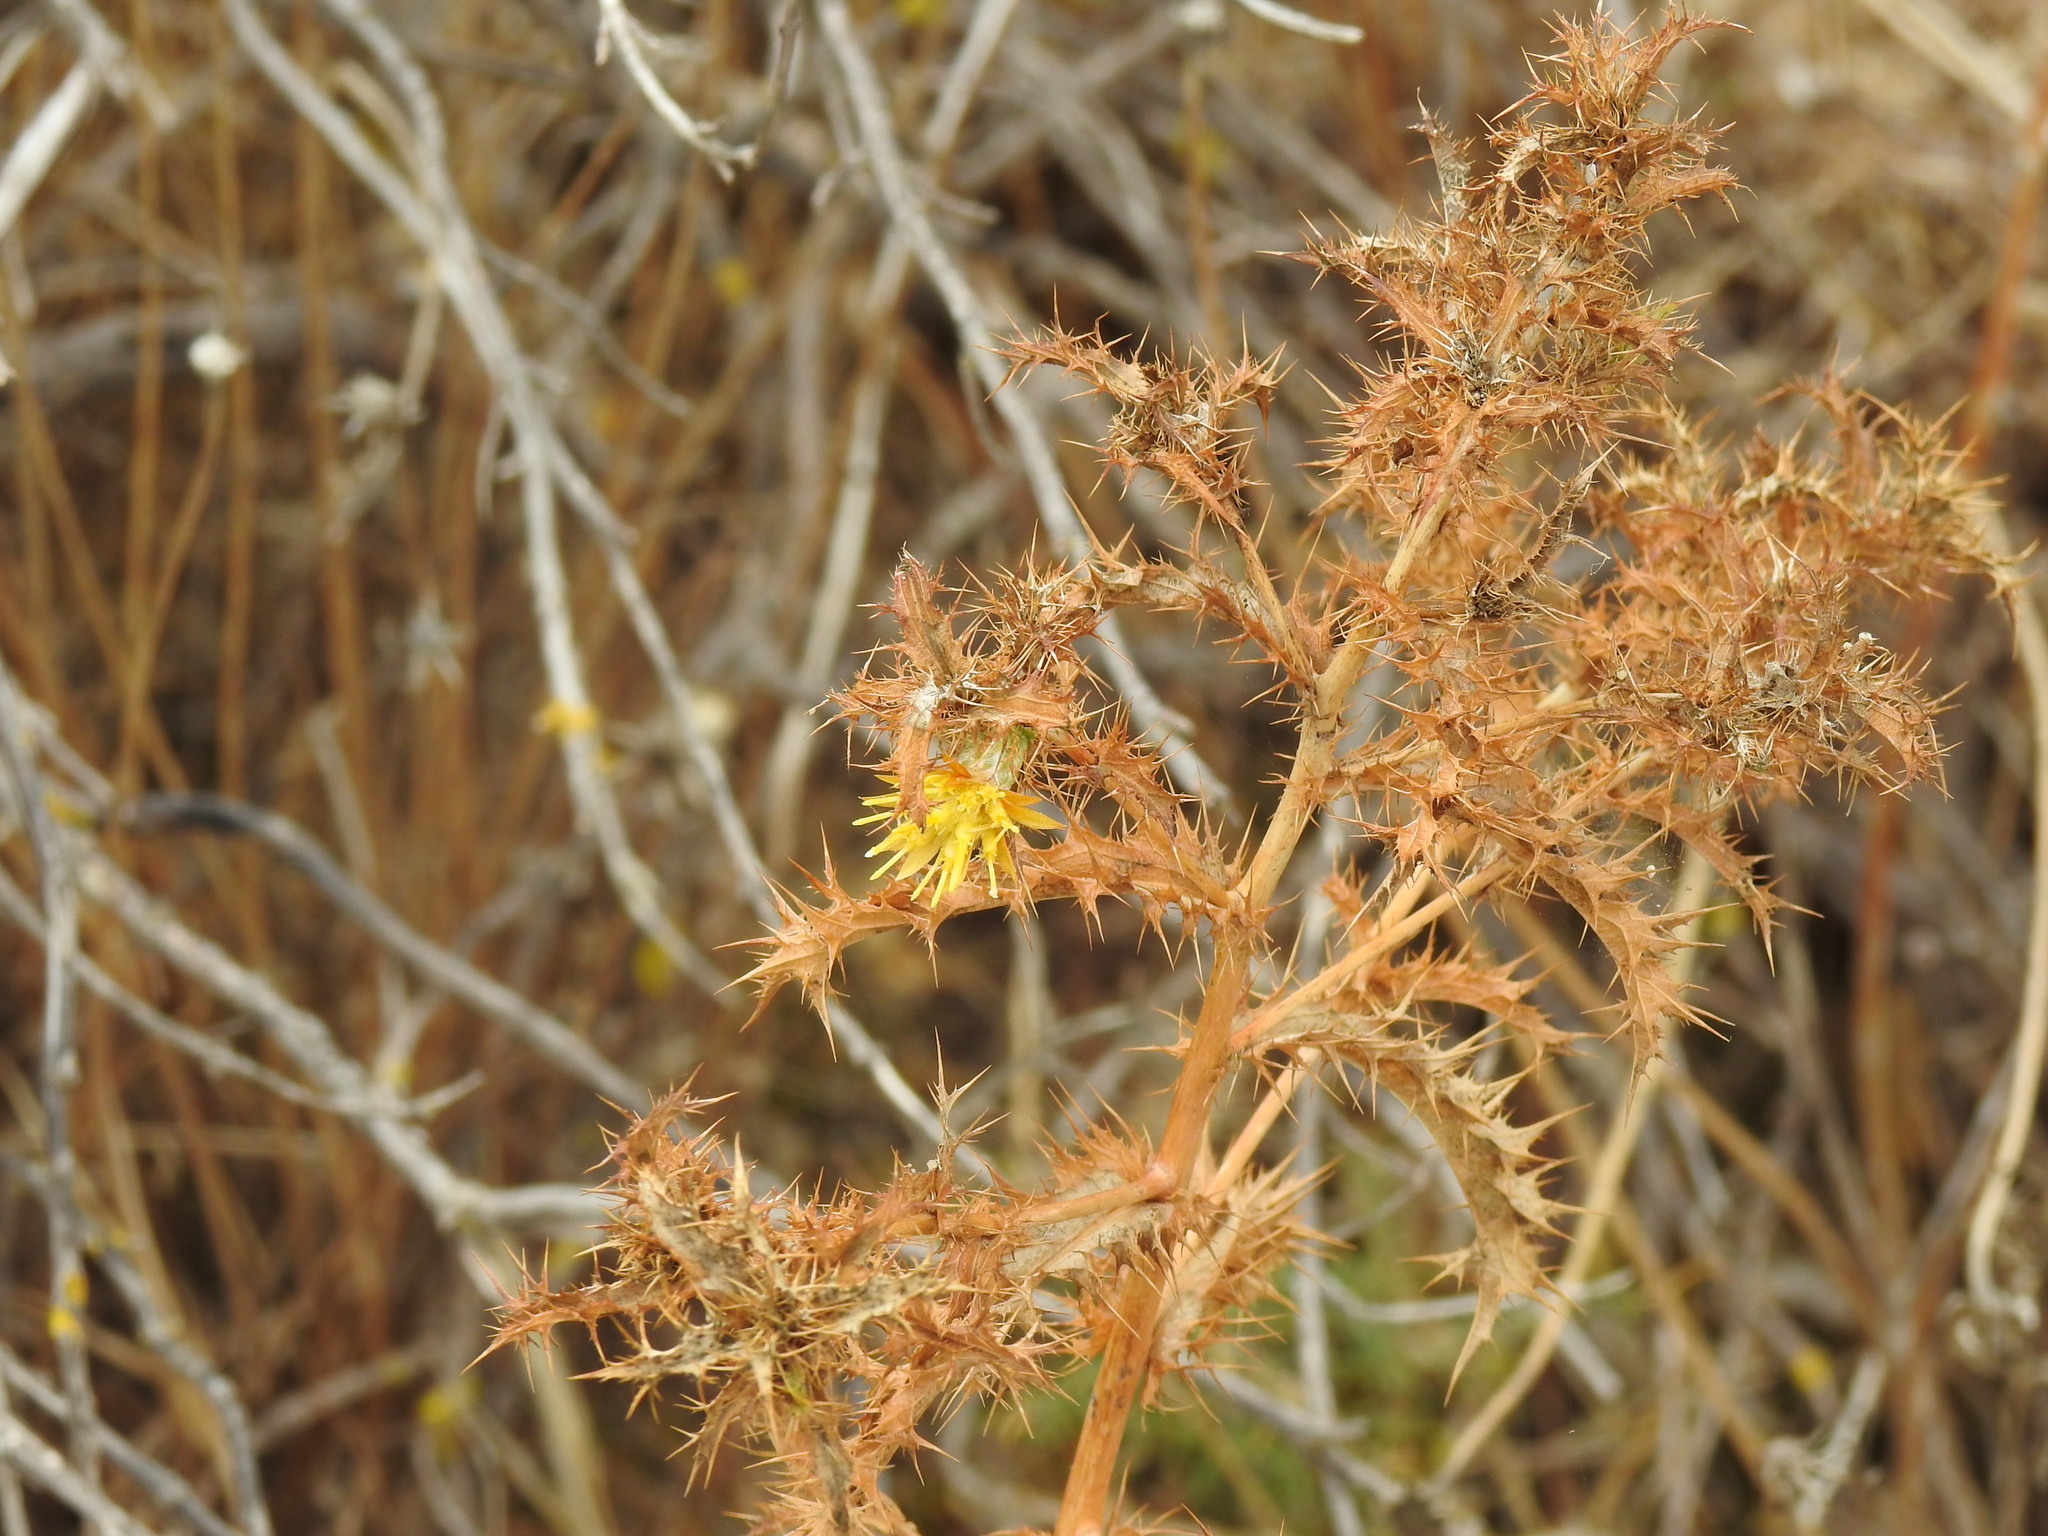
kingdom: Plantae
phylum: Tracheophyta
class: Magnoliopsida
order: Asterales
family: Asteraceae
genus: Carlina
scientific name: Carlina hispanica
